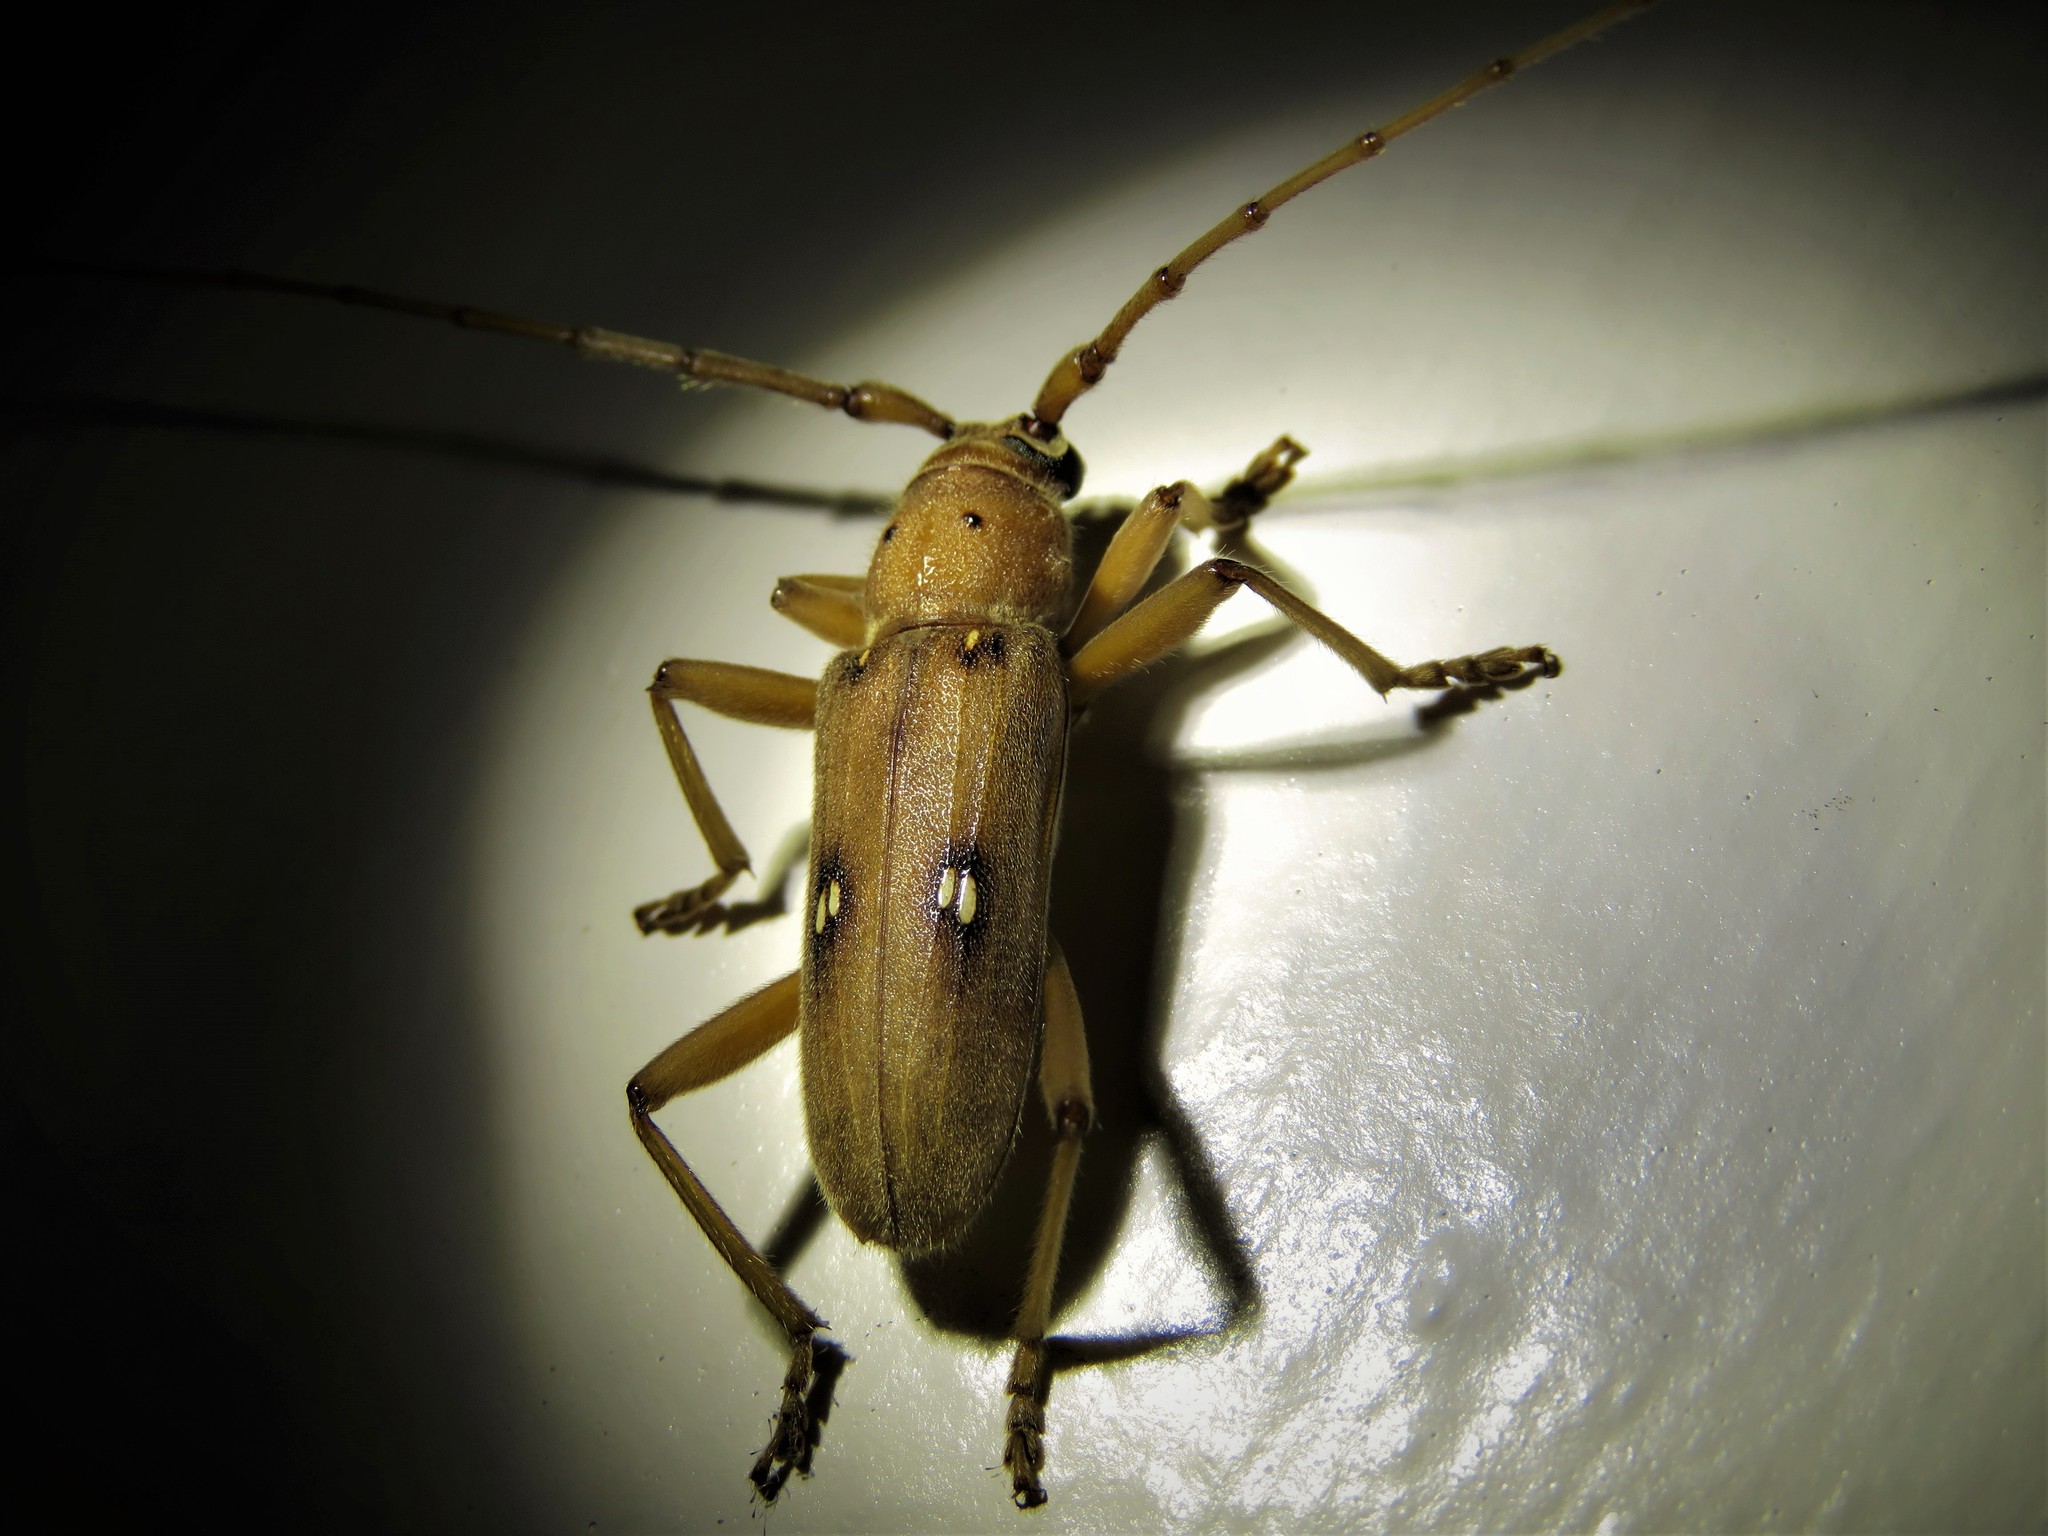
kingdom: Animalia
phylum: Arthropoda
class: Insecta
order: Coleoptera
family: Cerambycidae
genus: Eburia
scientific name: Eburia haldemani
